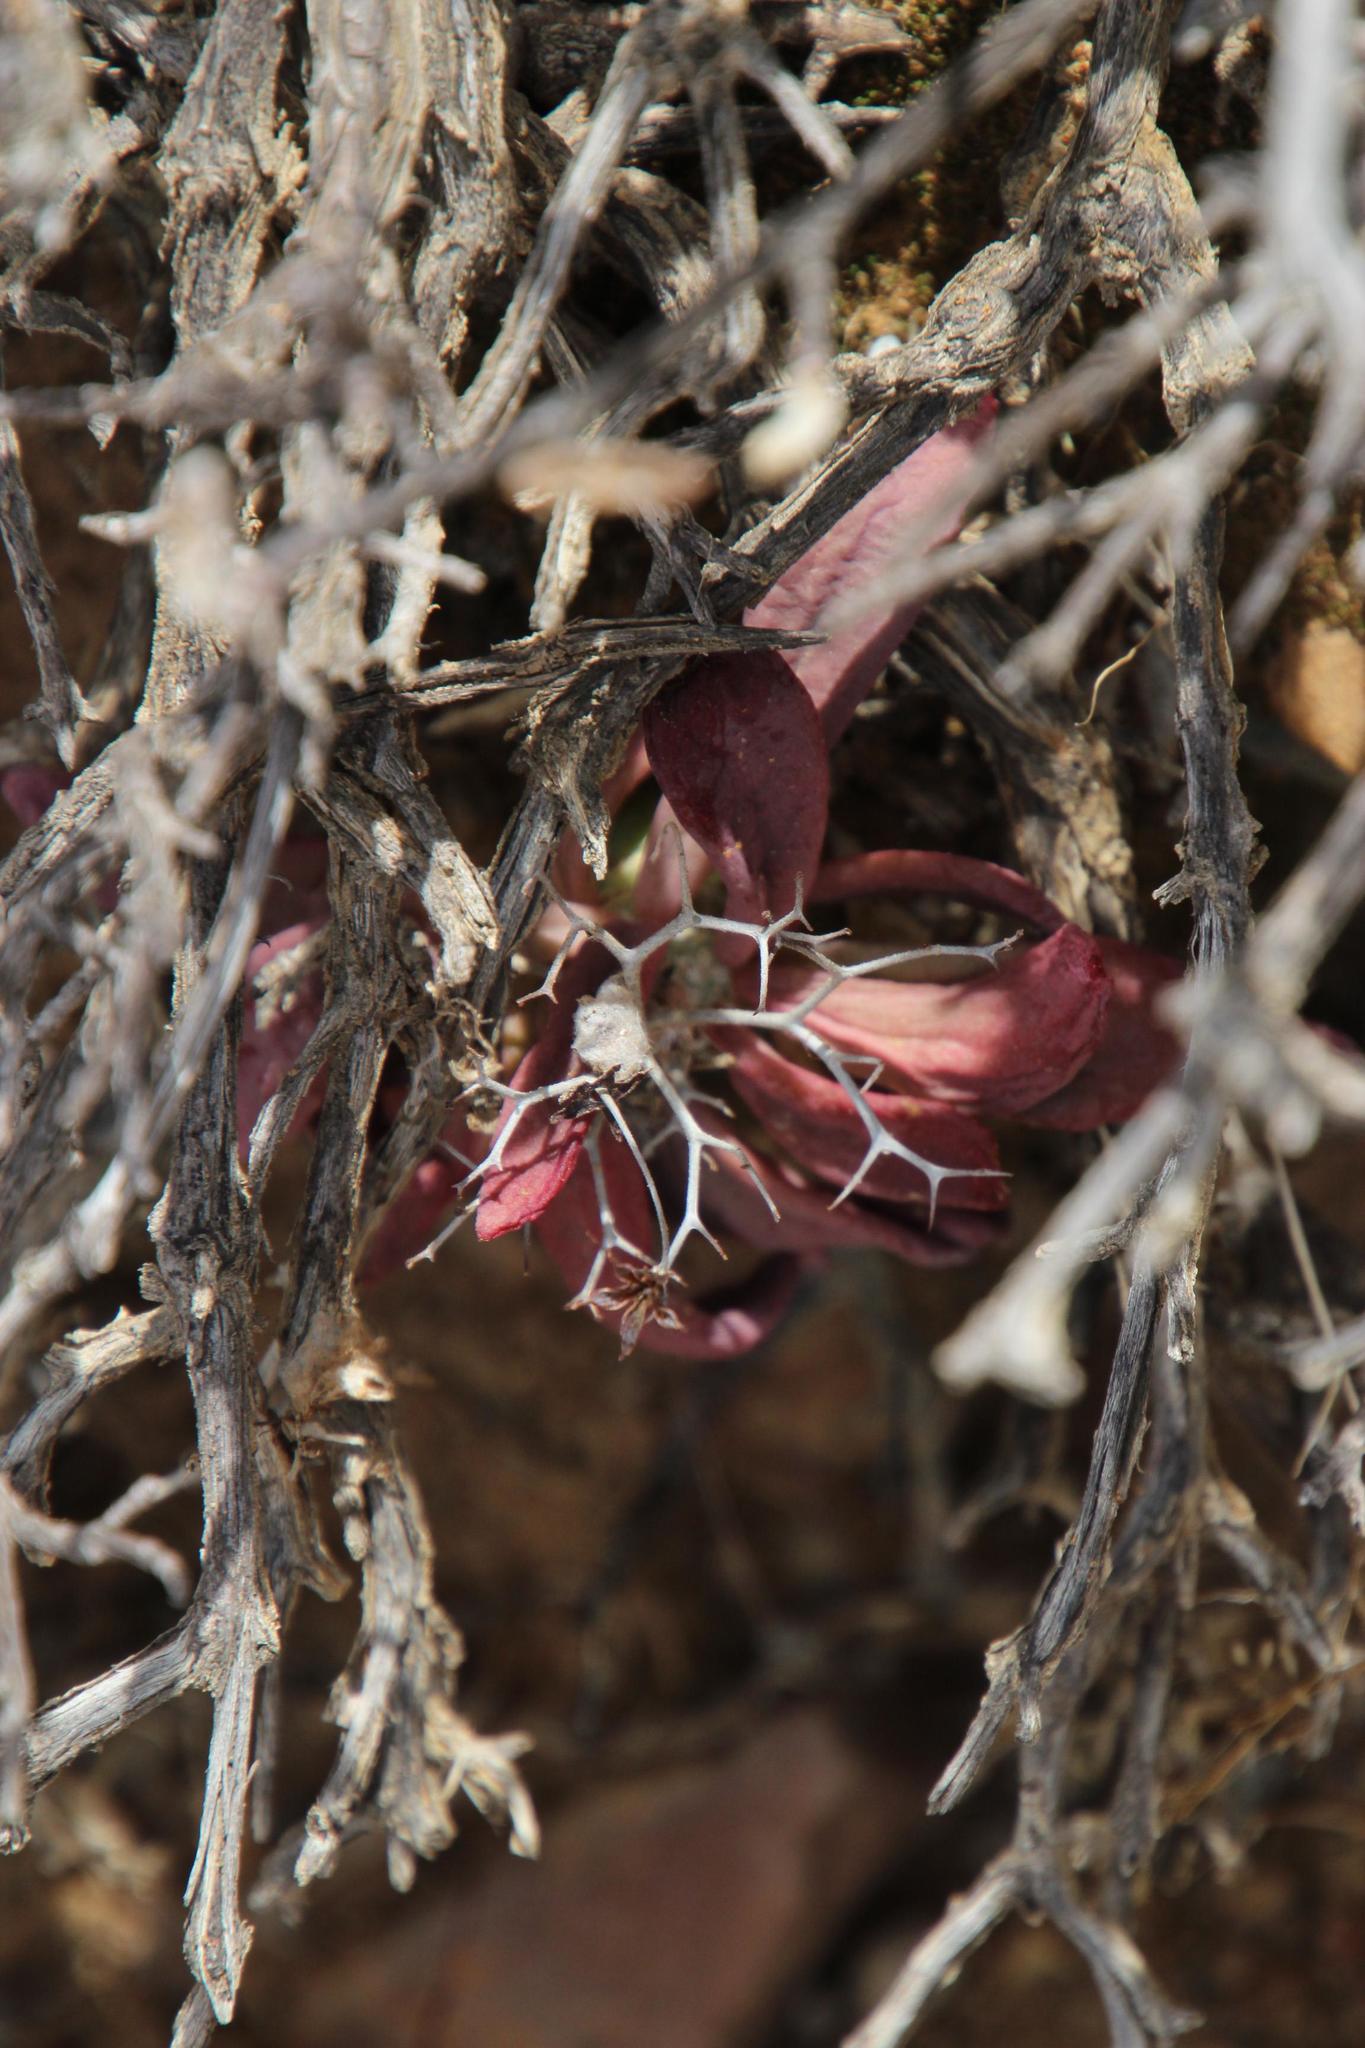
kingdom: Plantae
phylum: Tracheophyta
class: Magnoliopsida
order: Saxifragales
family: Crassulaceae
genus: Tylecodon
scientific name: Tylecodon reticulatus
